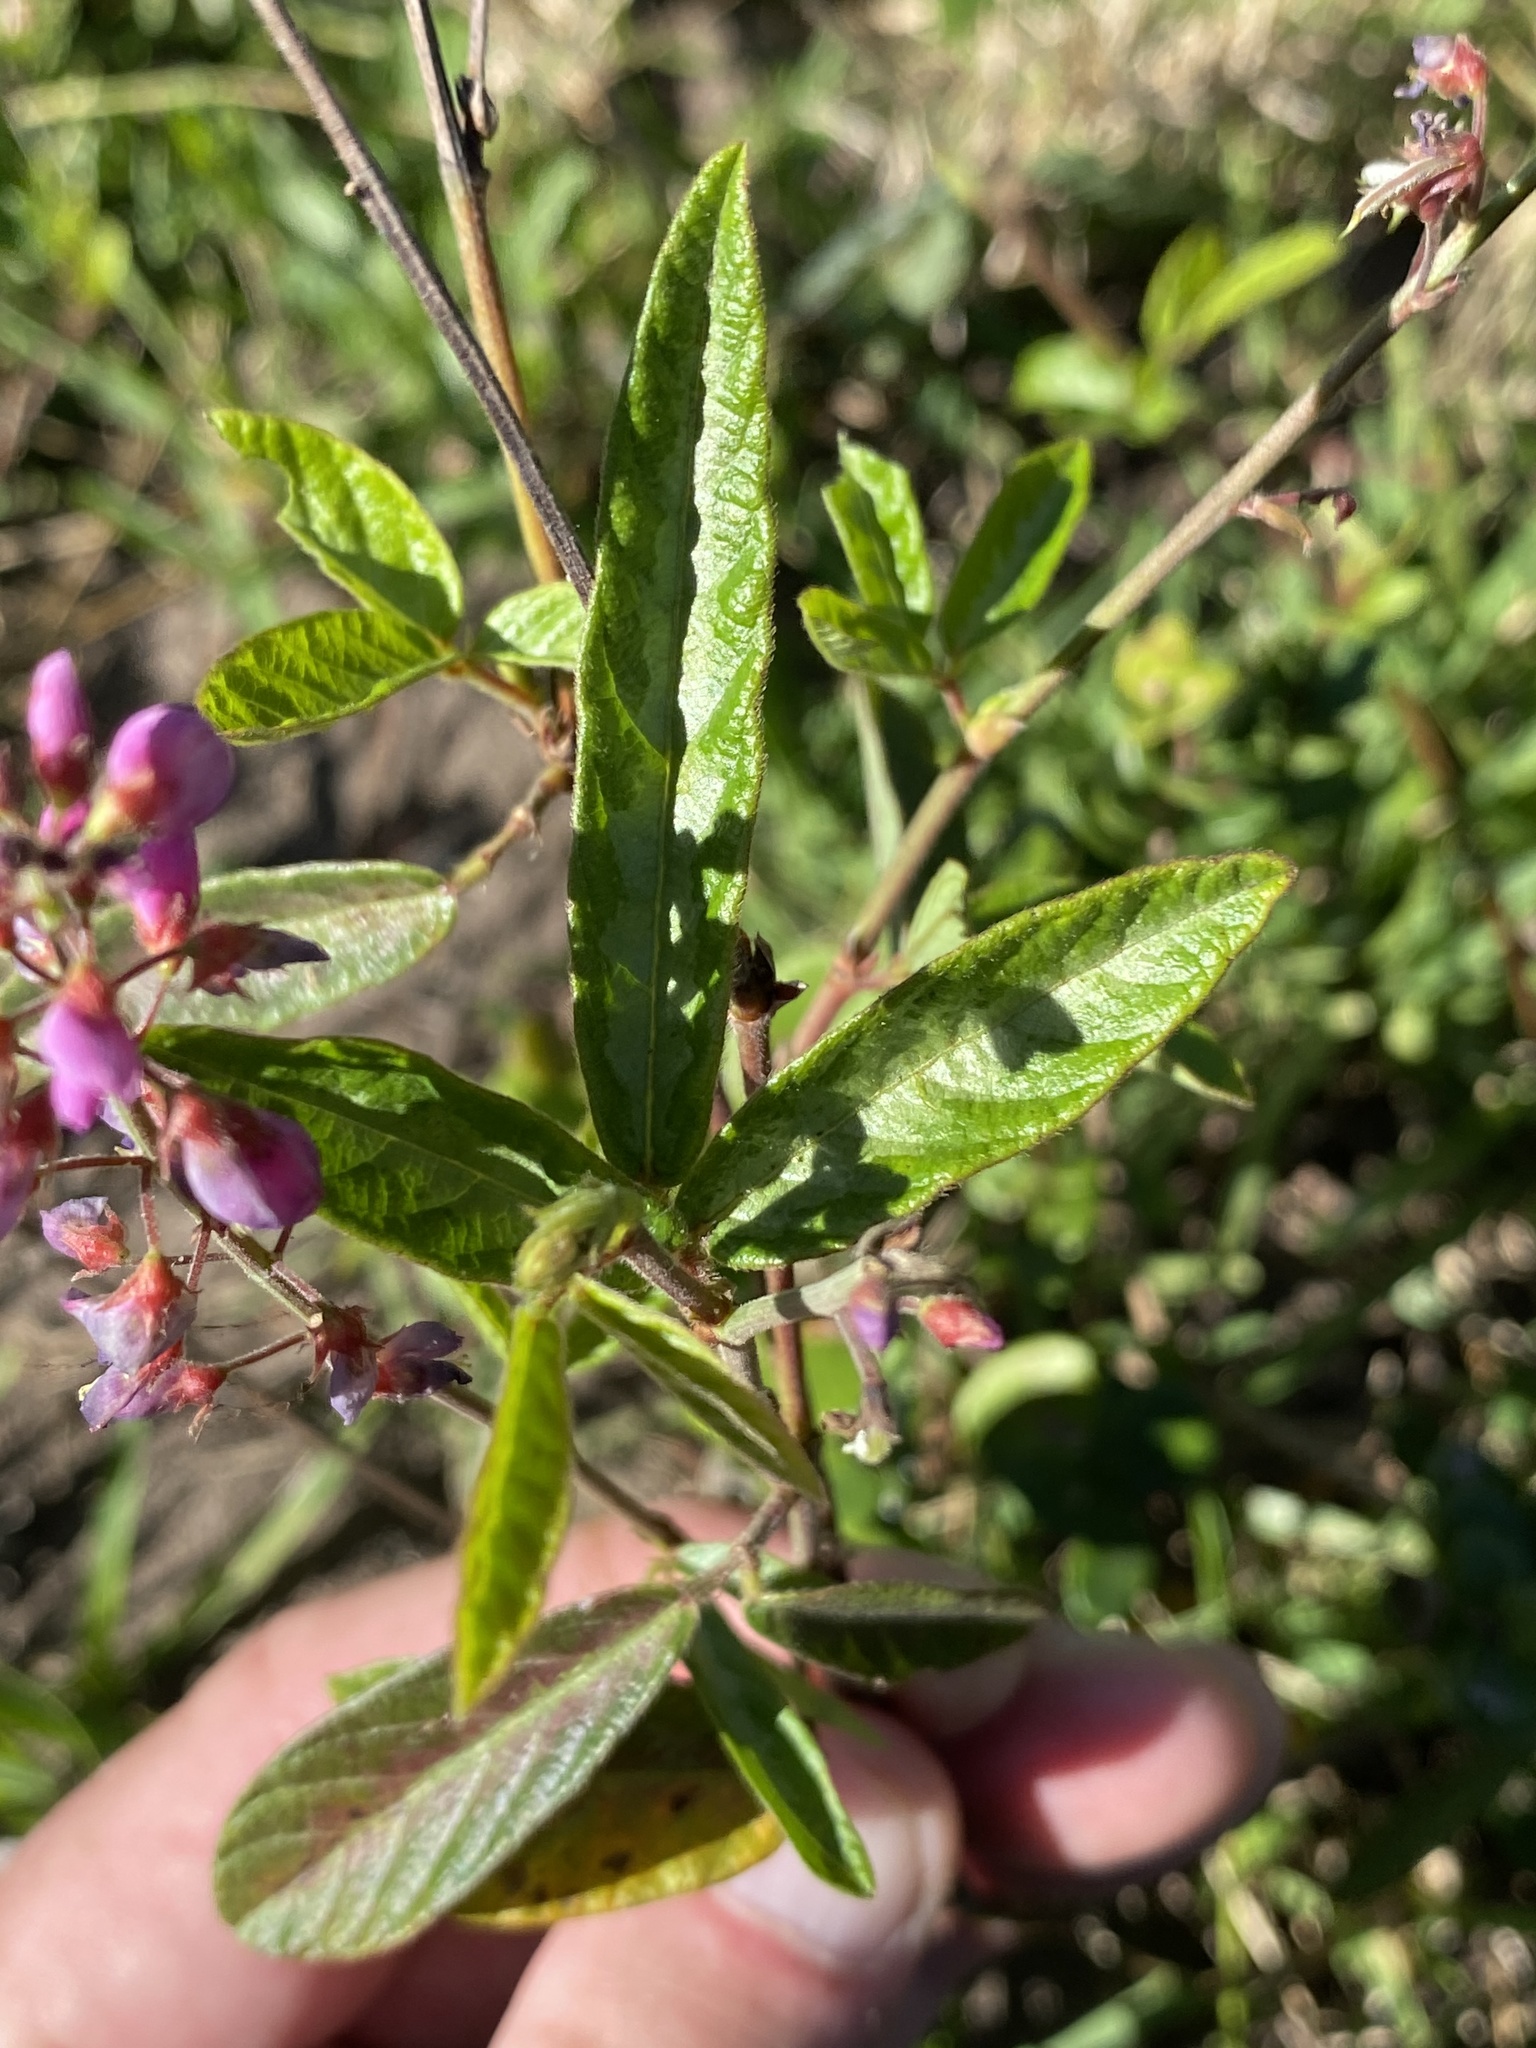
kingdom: Plantae
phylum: Tracheophyta
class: Magnoliopsida
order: Fabales
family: Fabaceae
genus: Desmodium
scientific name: Desmodium incanum
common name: Tickclover
